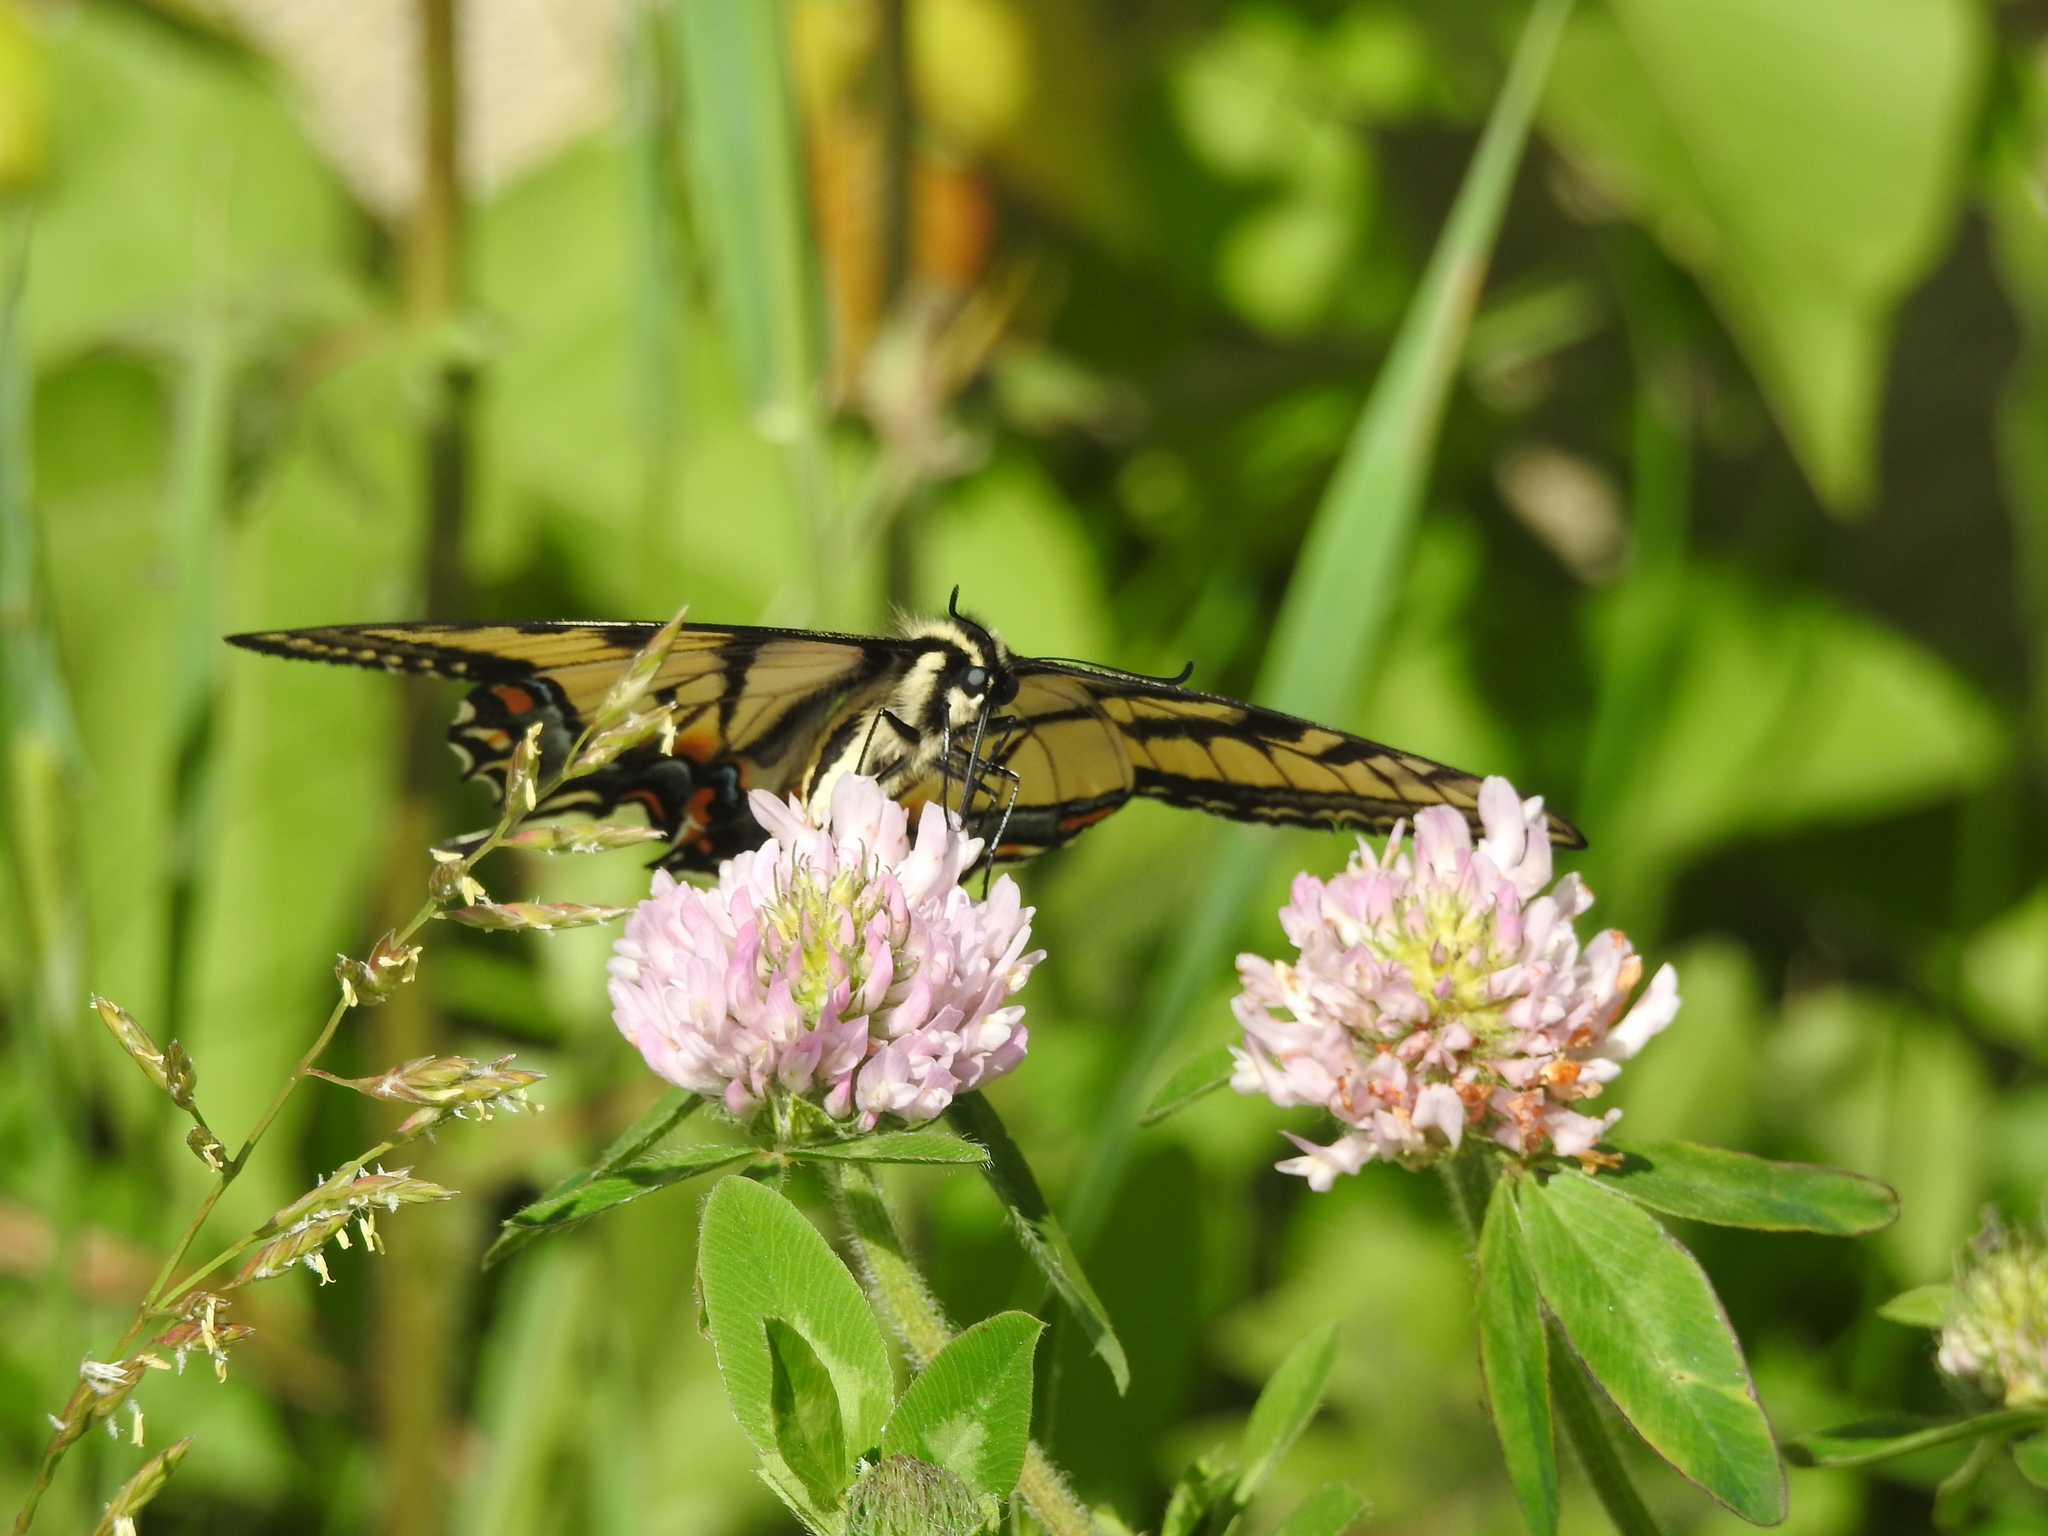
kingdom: Animalia
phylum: Arthropoda
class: Insecta
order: Lepidoptera
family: Papilionidae
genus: Papilio
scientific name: Papilio canadensis
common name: Canadian tiger swallowtail
